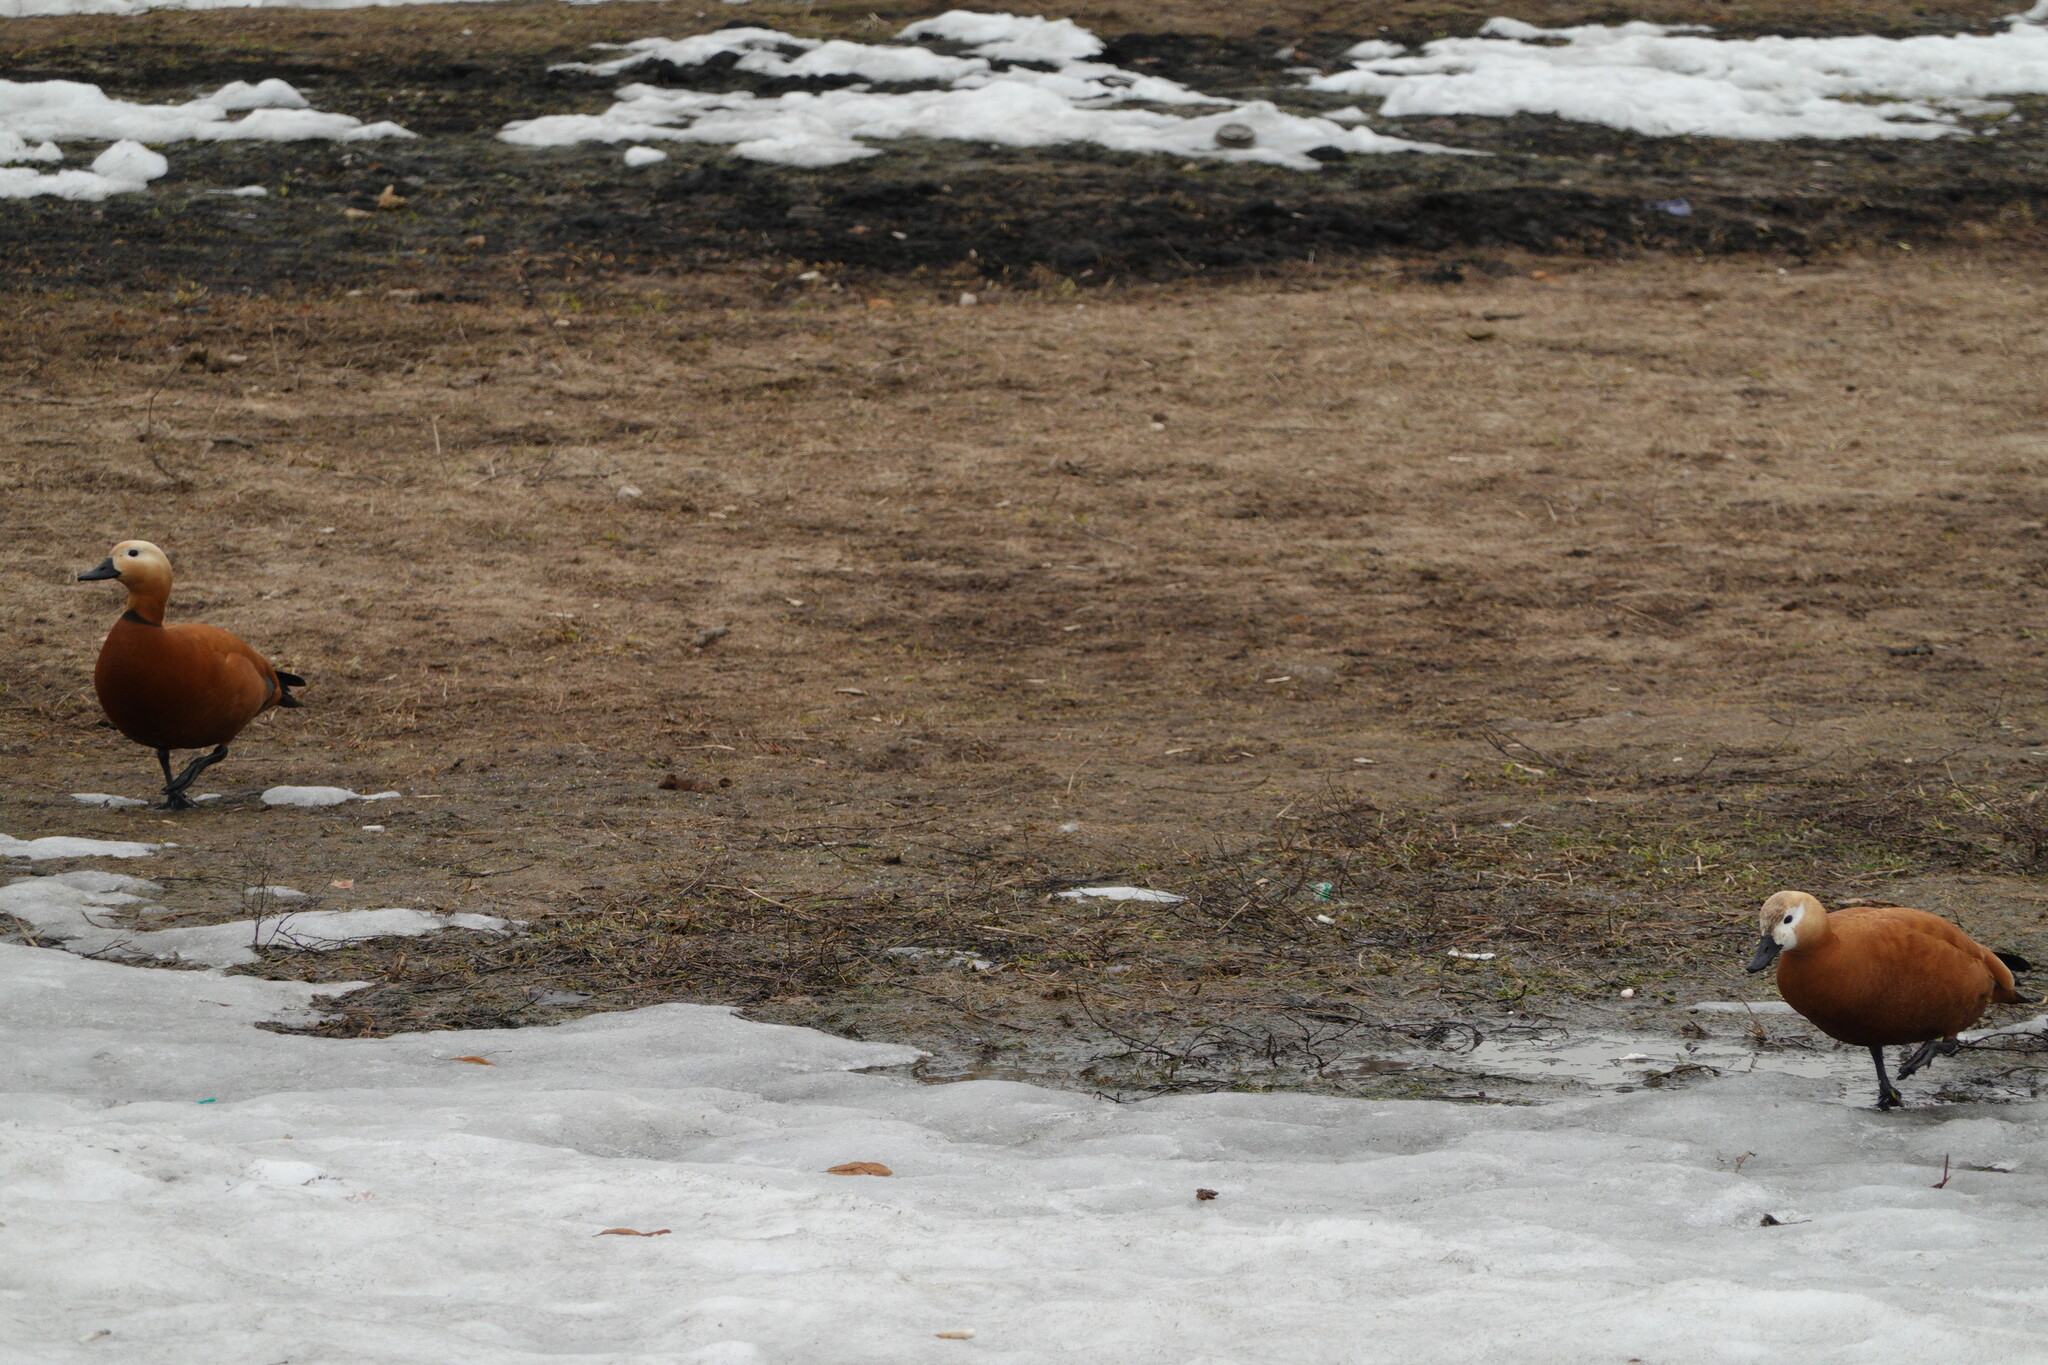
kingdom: Animalia
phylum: Chordata
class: Aves
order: Anseriformes
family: Anatidae
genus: Tadorna
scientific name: Tadorna ferruginea
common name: Ruddy shelduck
